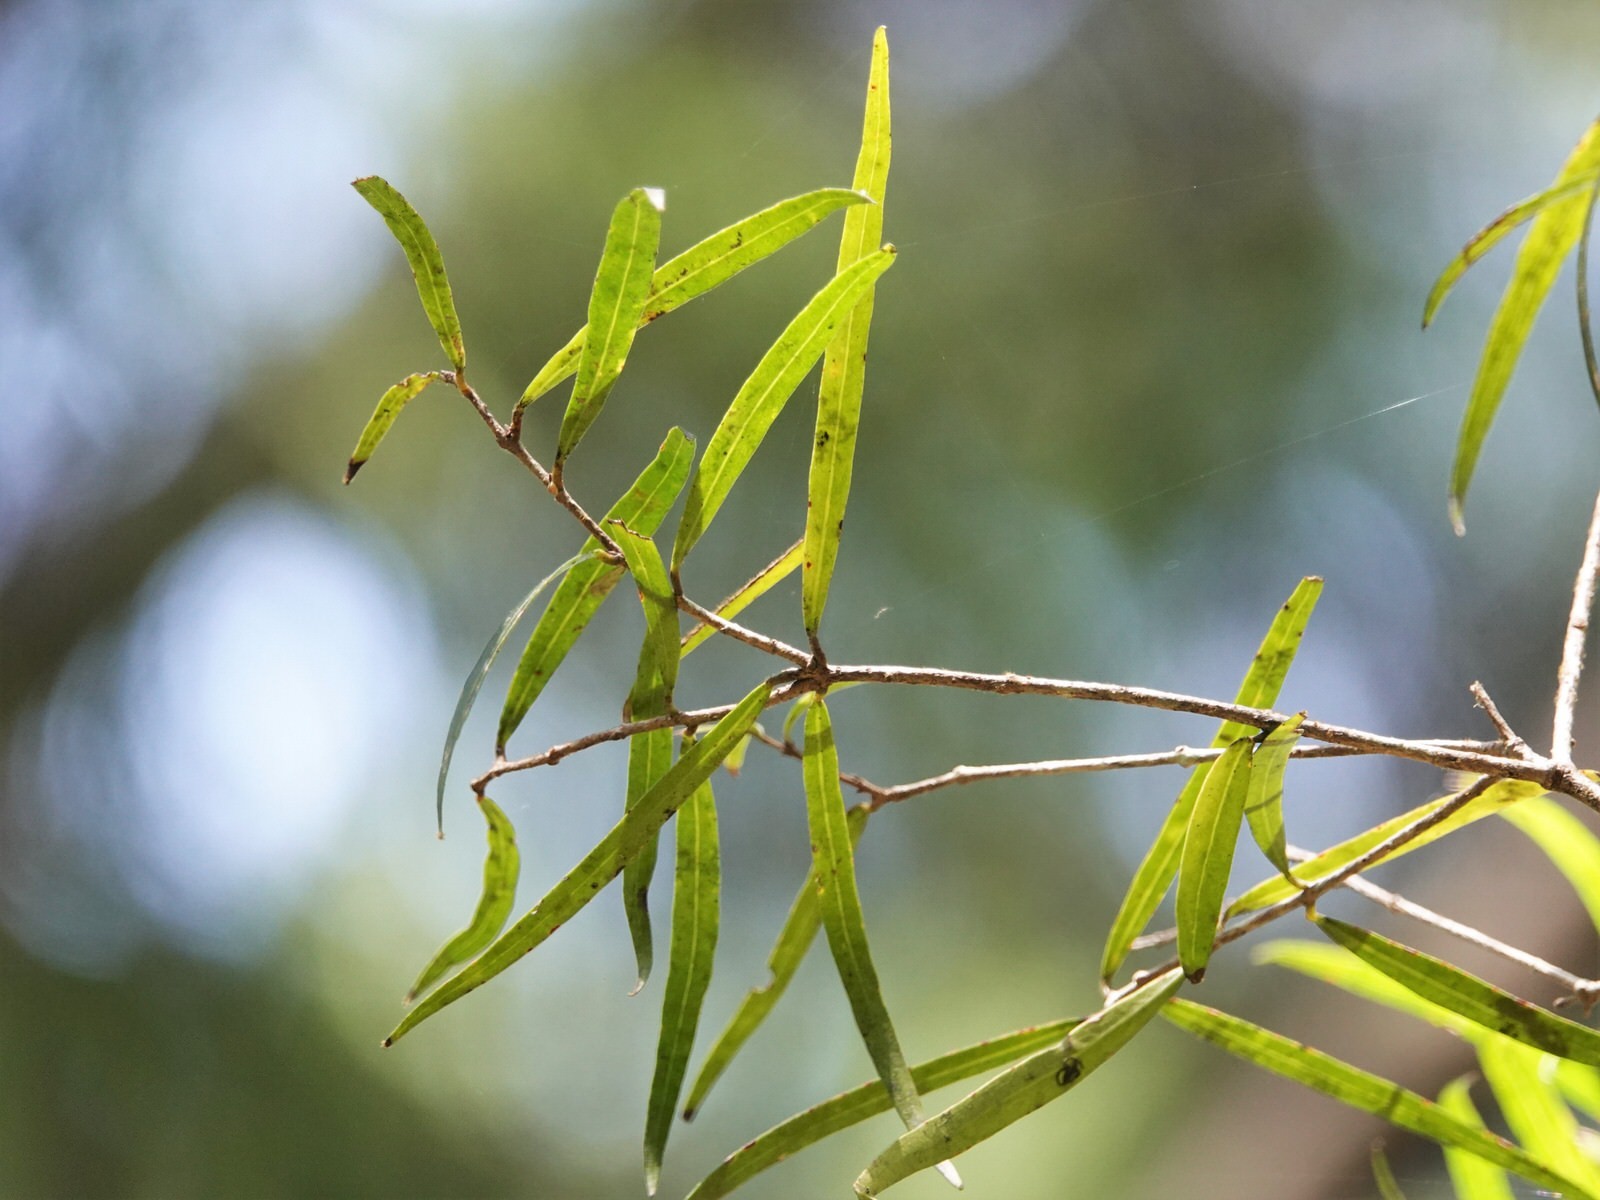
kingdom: Plantae
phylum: Tracheophyta
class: Magnoliopsida
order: Lamiales
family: Oleaceae
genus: Nestegis
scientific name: Nestegis montana
